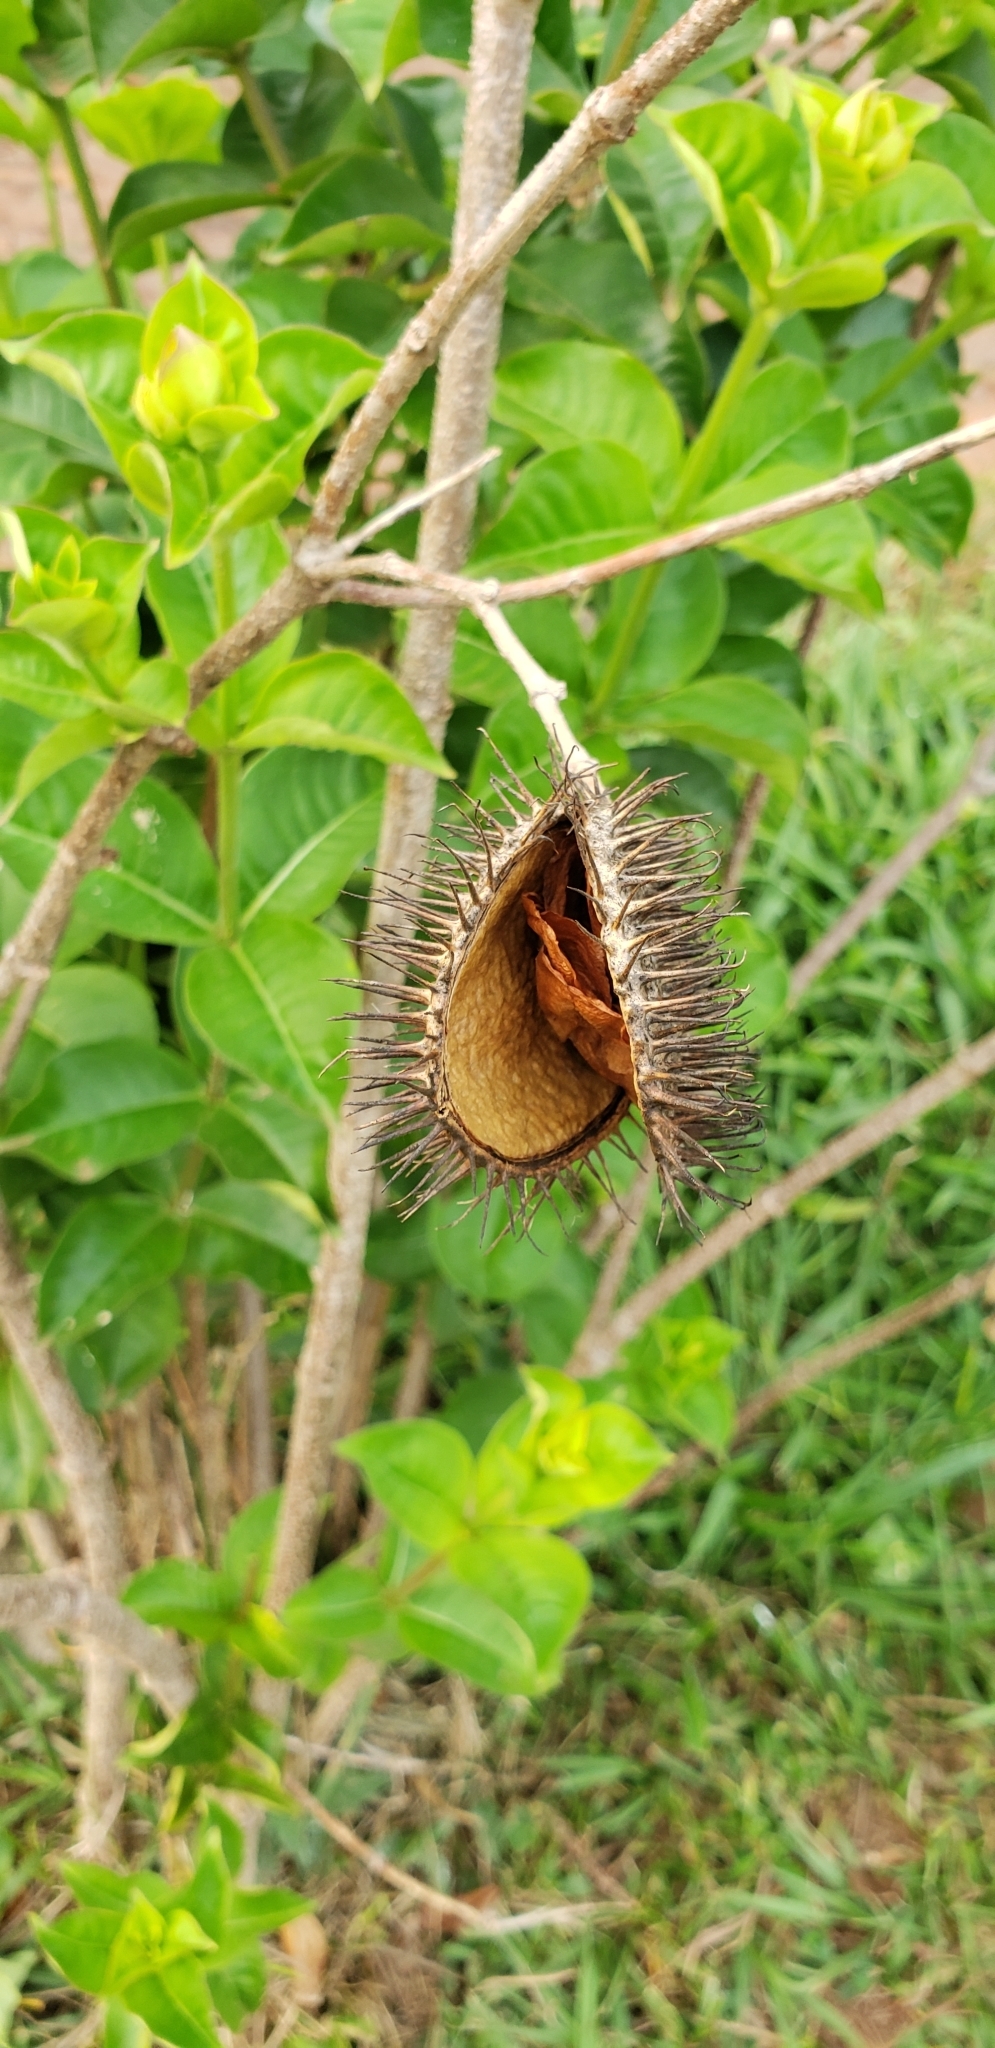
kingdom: Plantae
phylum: Tracheophyta
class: Magnoliopsida
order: Gentianales
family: Apocynaceae
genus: Allamanda
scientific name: Allamanda blanchetii
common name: Purple allamanda
